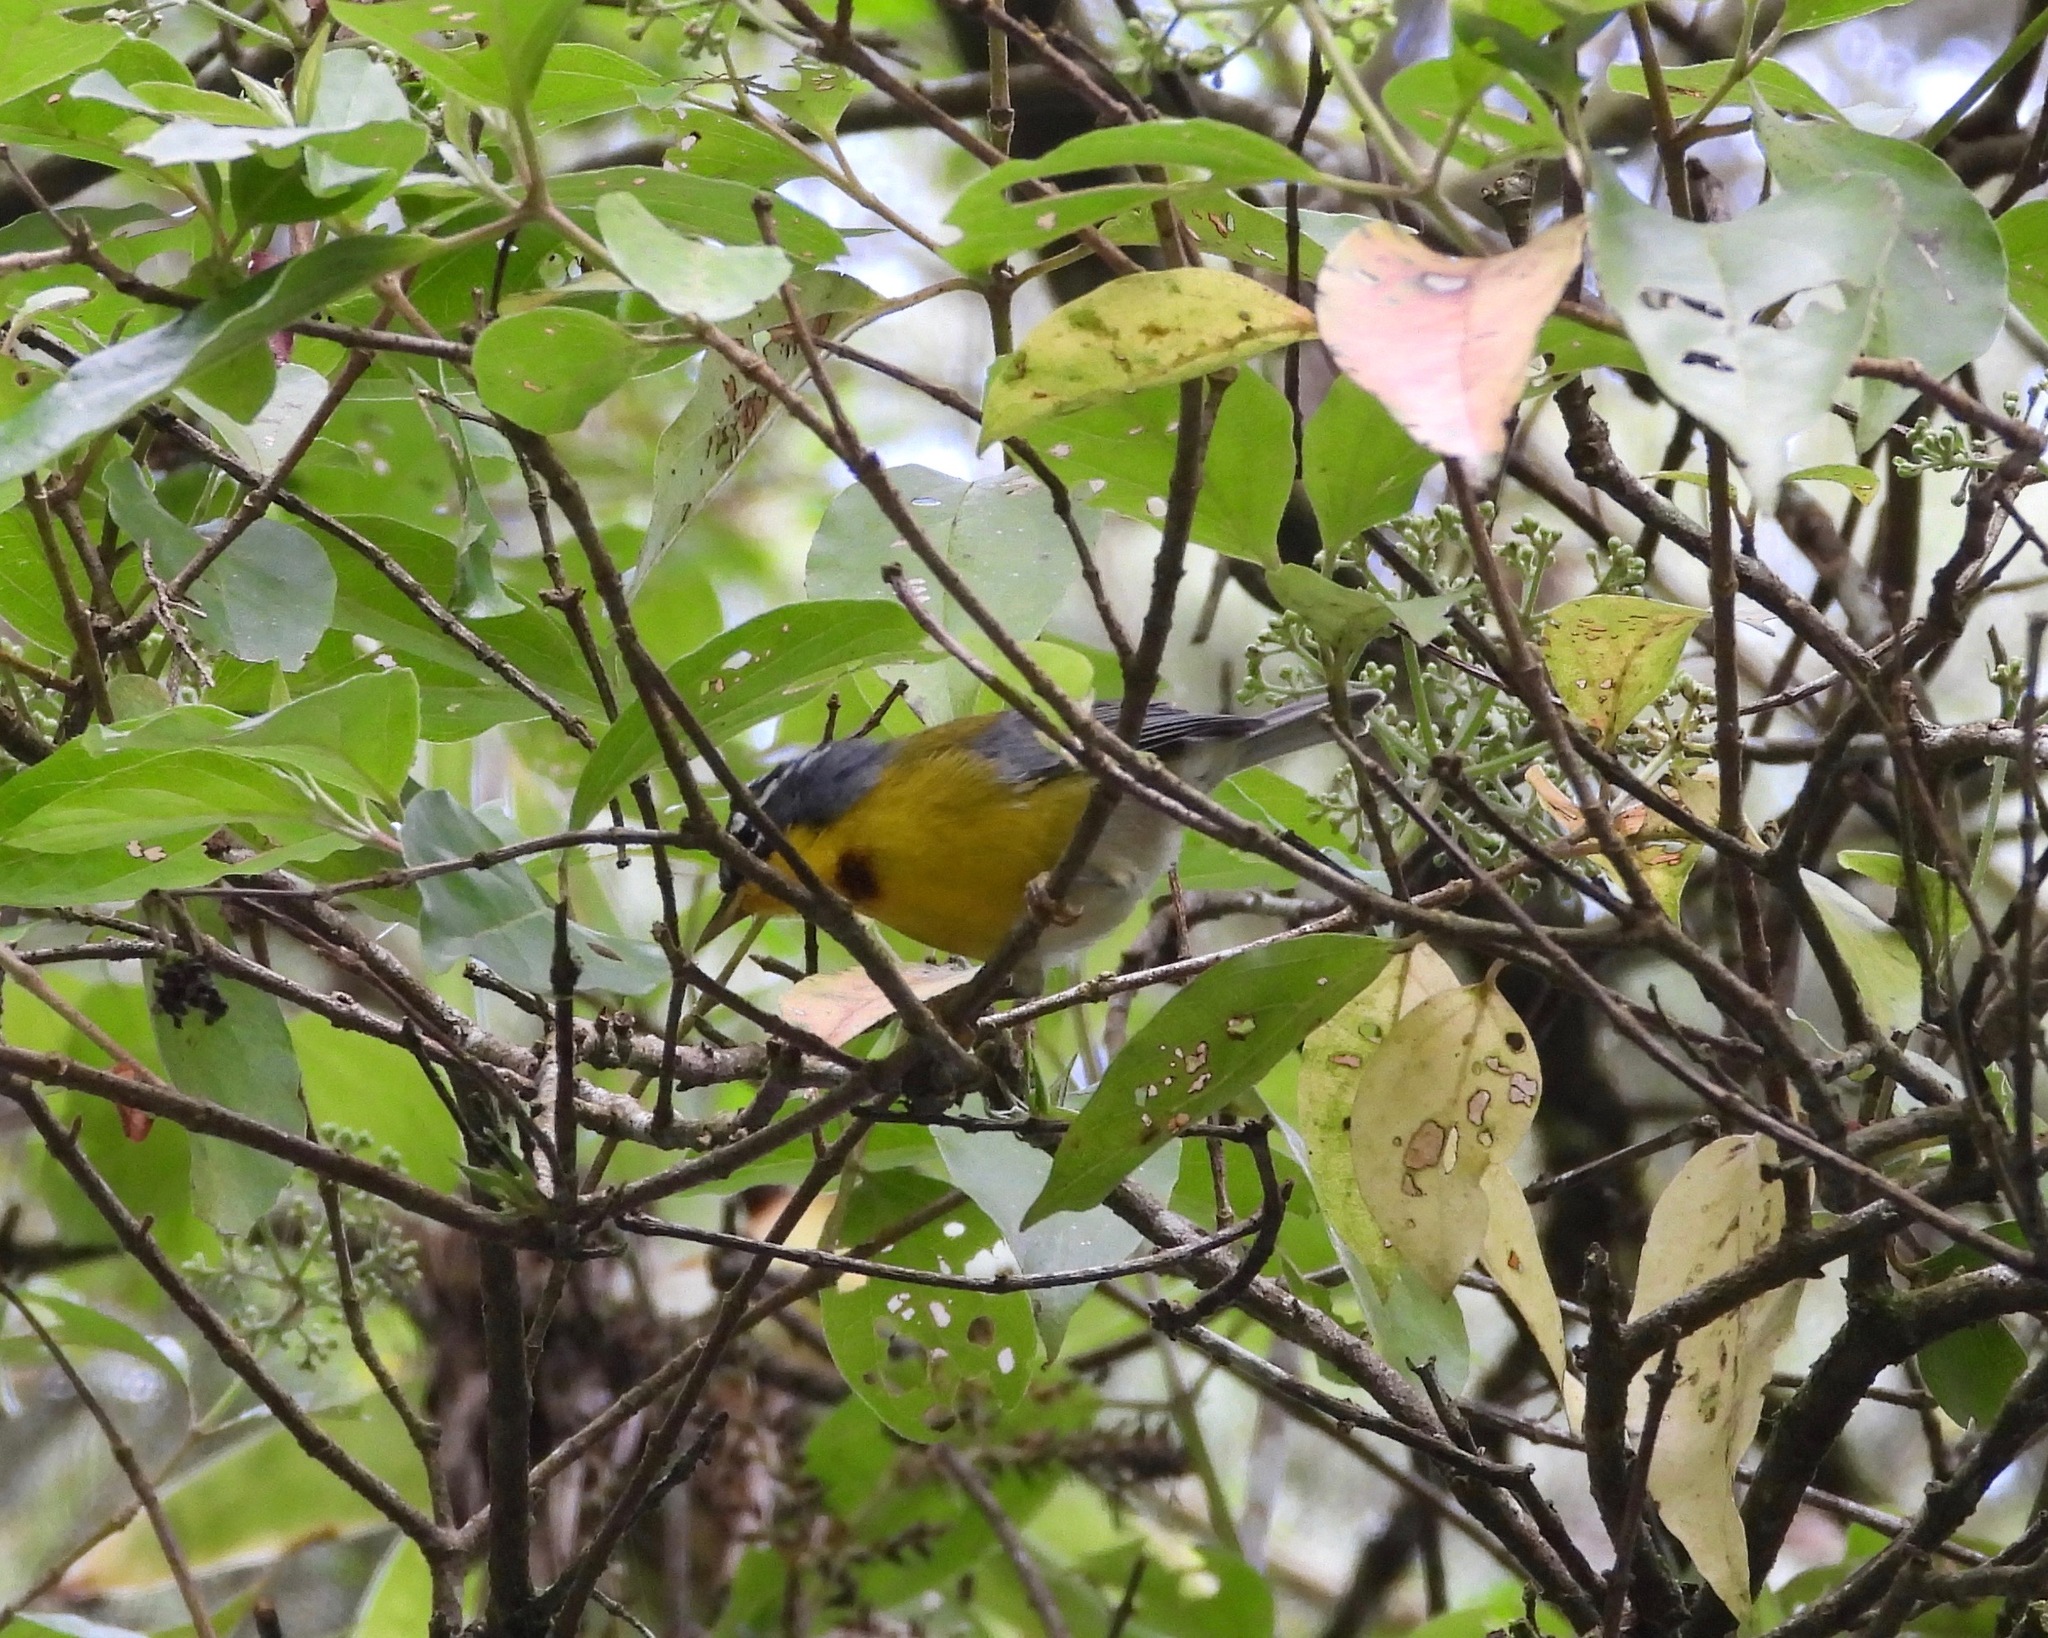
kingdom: Animalia
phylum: Chordata
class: Aves
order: Passeriformes
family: Parulidae
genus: Oreothlypis
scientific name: Oreothlypis superciliosa
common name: Crescent-chested warbler
